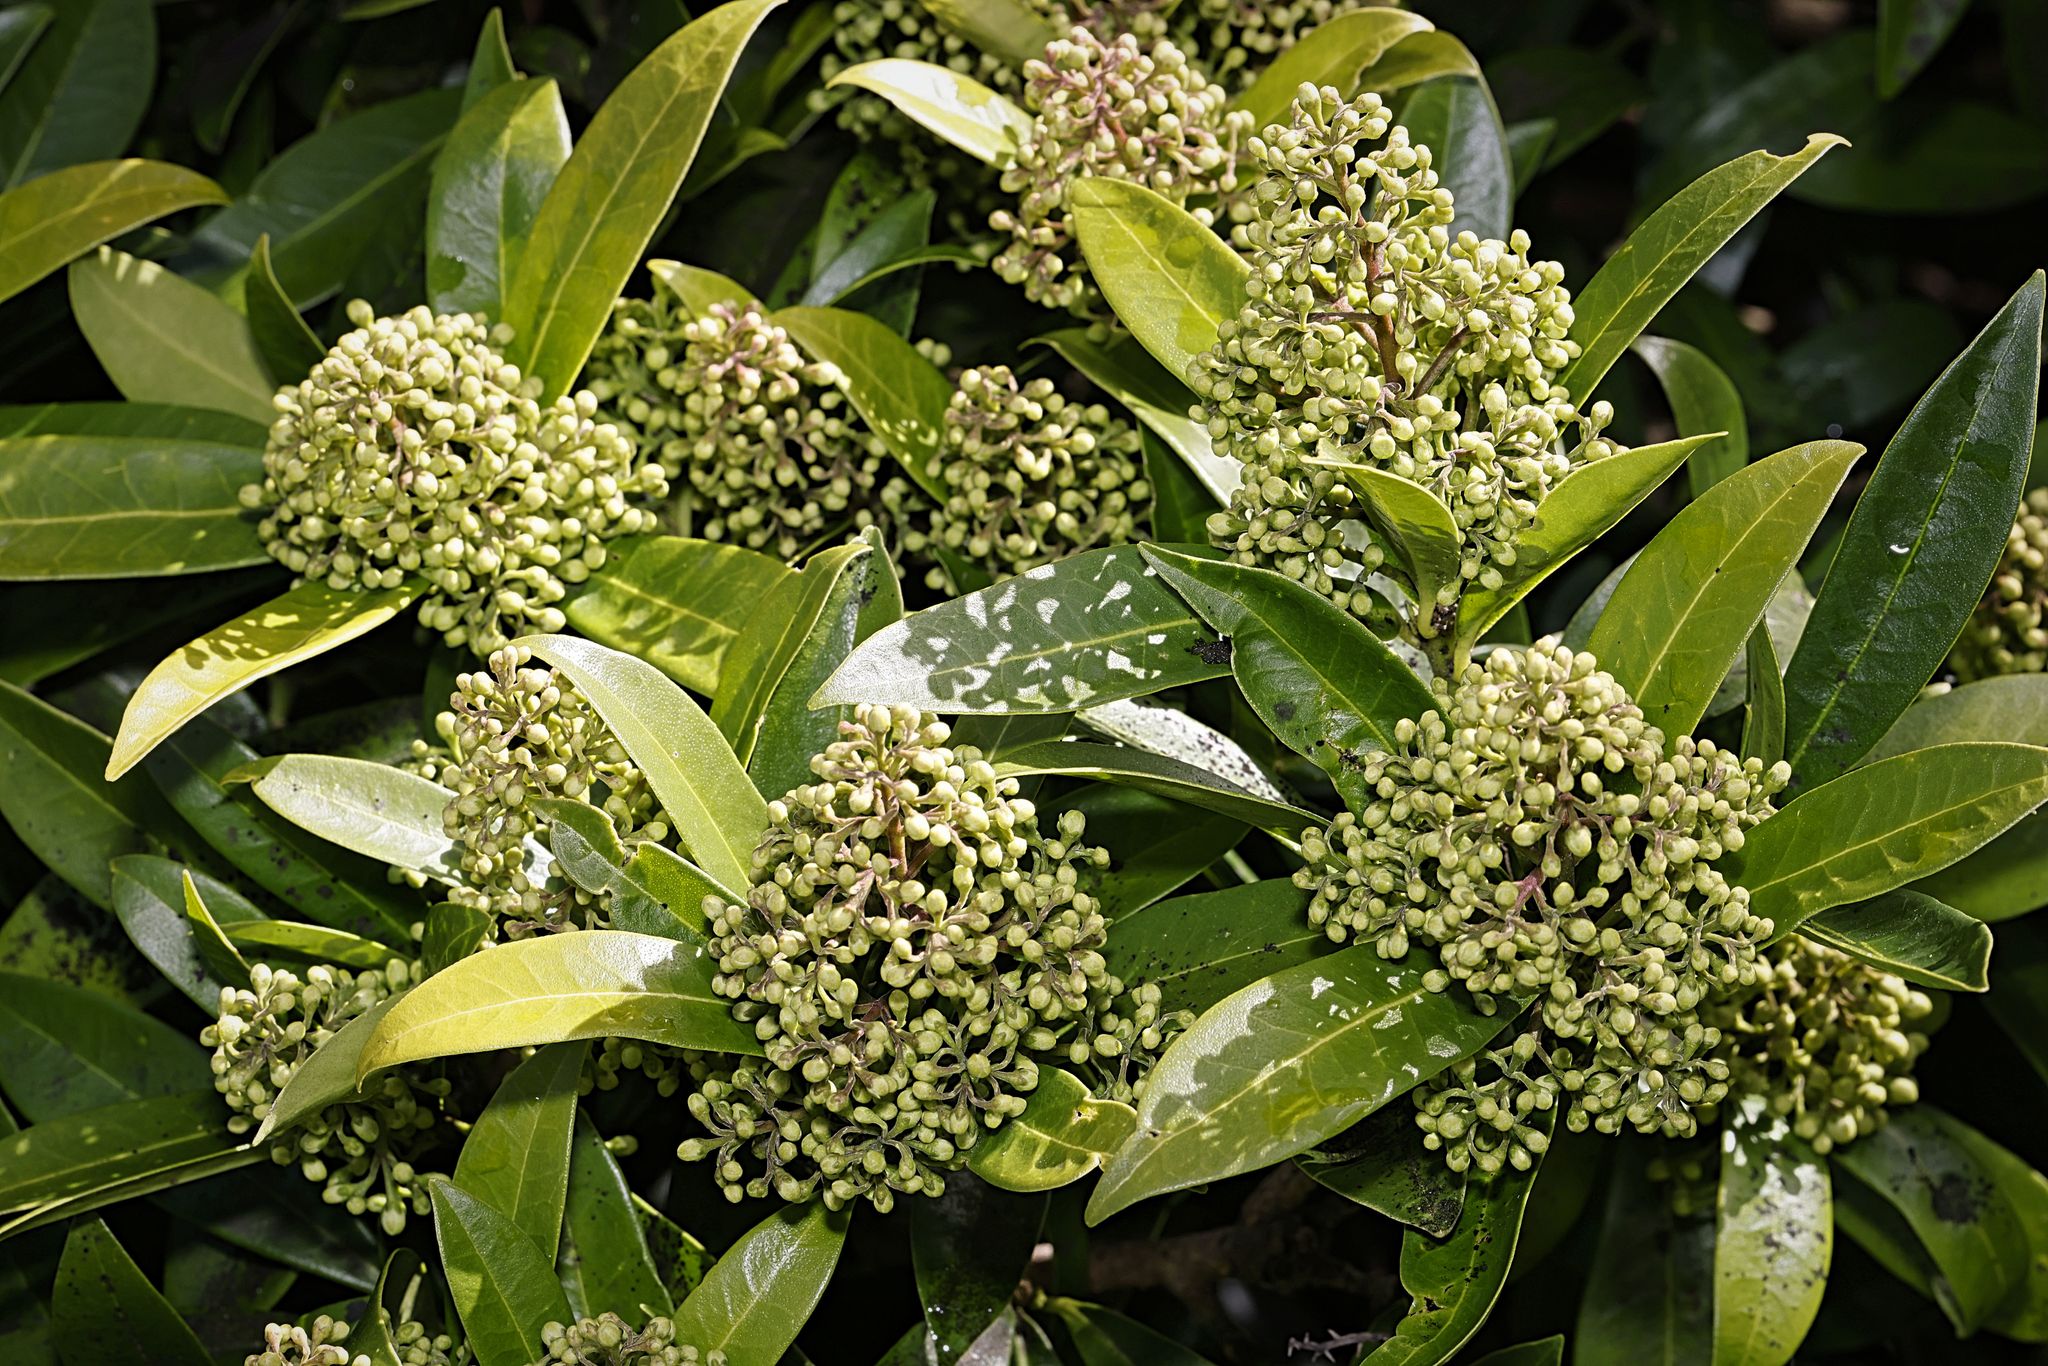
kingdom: Plantae
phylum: Tracheophyta
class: Magnoliopsida
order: Sapindales
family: Rutaceae
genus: Choisya
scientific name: Choisya ternata
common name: Mexican orange
